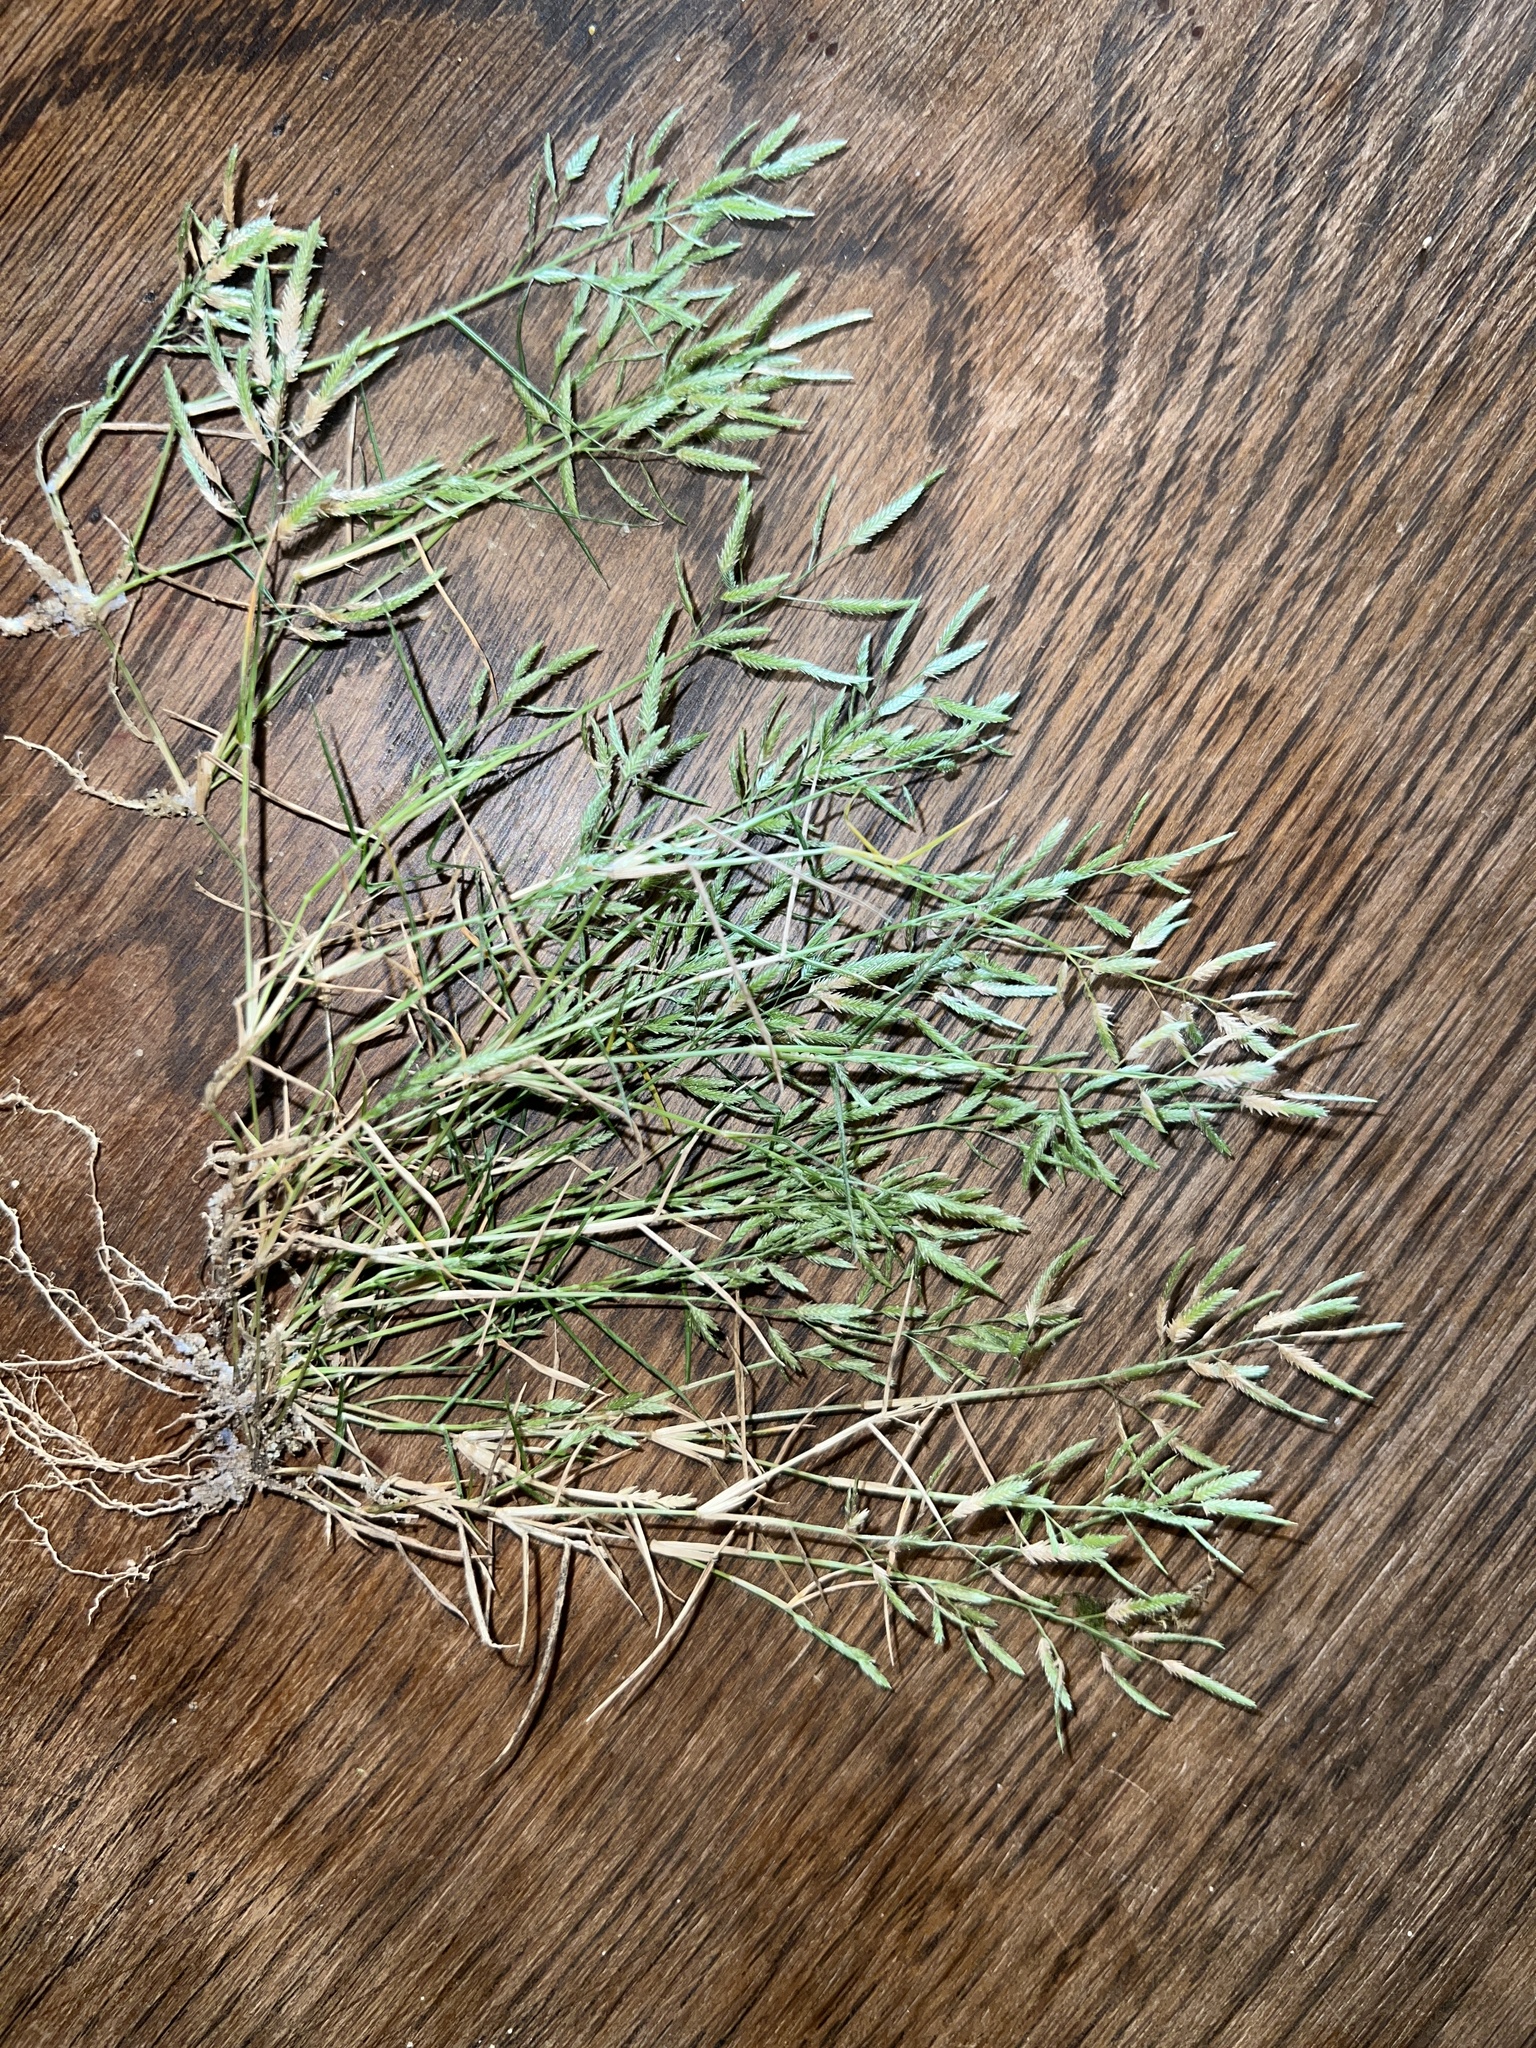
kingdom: Plantae
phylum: Tracheophyta
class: Liliopsida
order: Poales
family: Poaceae
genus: Eragrostis
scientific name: Eragrostis hypnoides
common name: Creeping love grass
